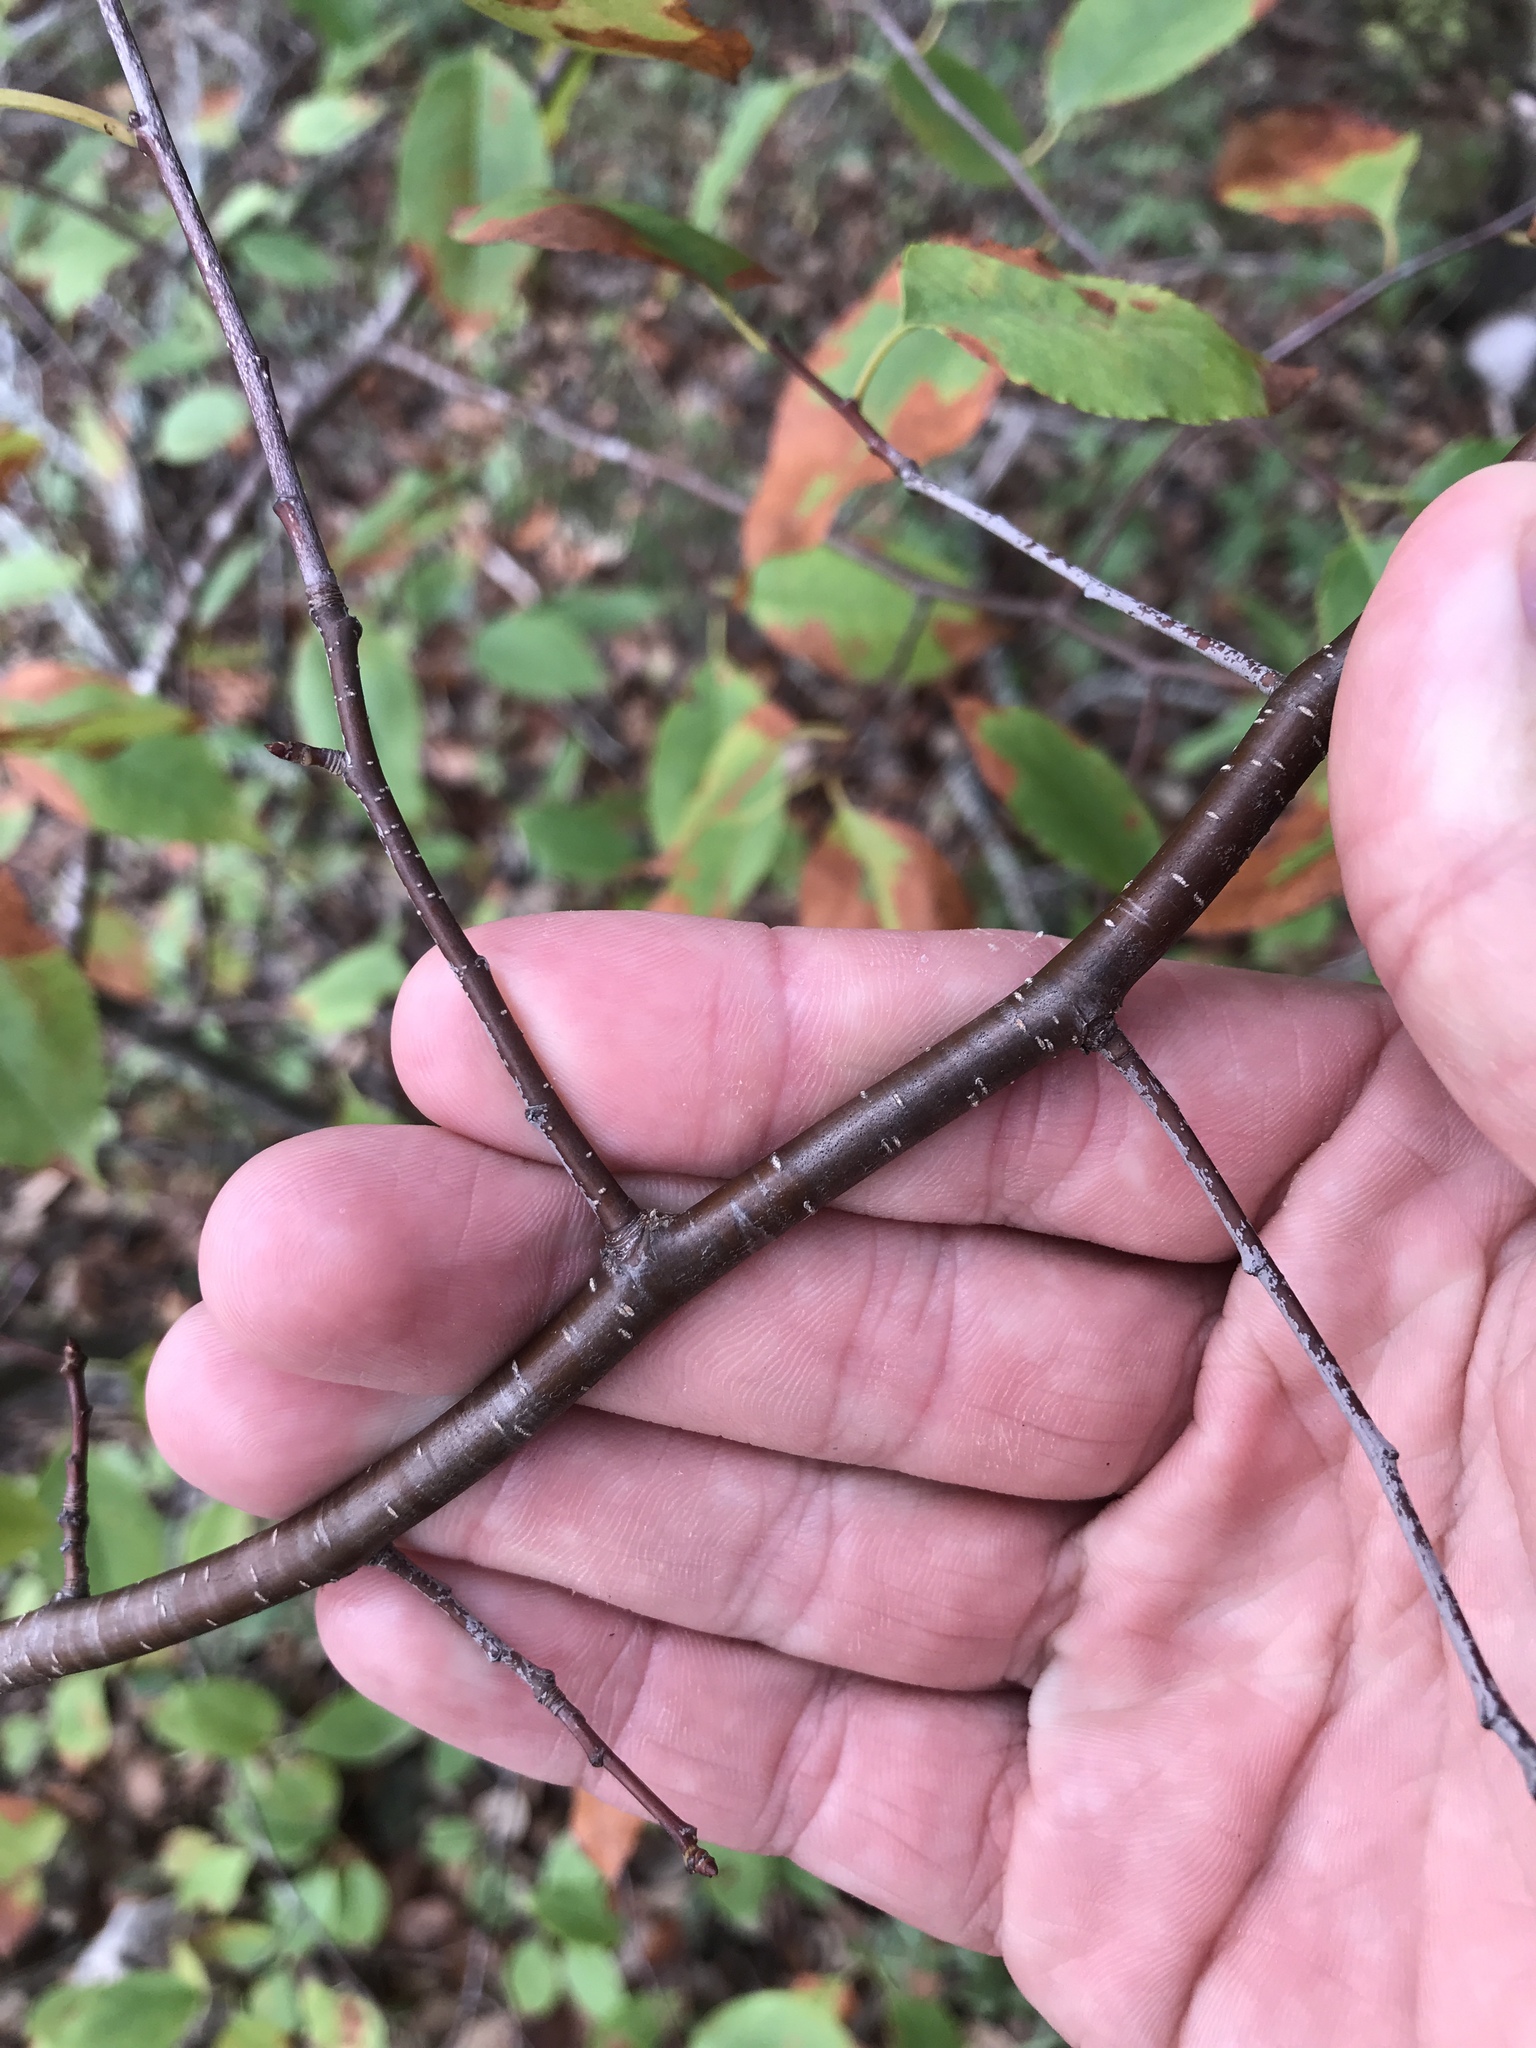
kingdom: Plantae
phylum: Tracheophyta
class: Magnoliopsida
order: Rosales
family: Rosaceae
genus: Prunus
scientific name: Prunus serotina
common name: Black cherry
